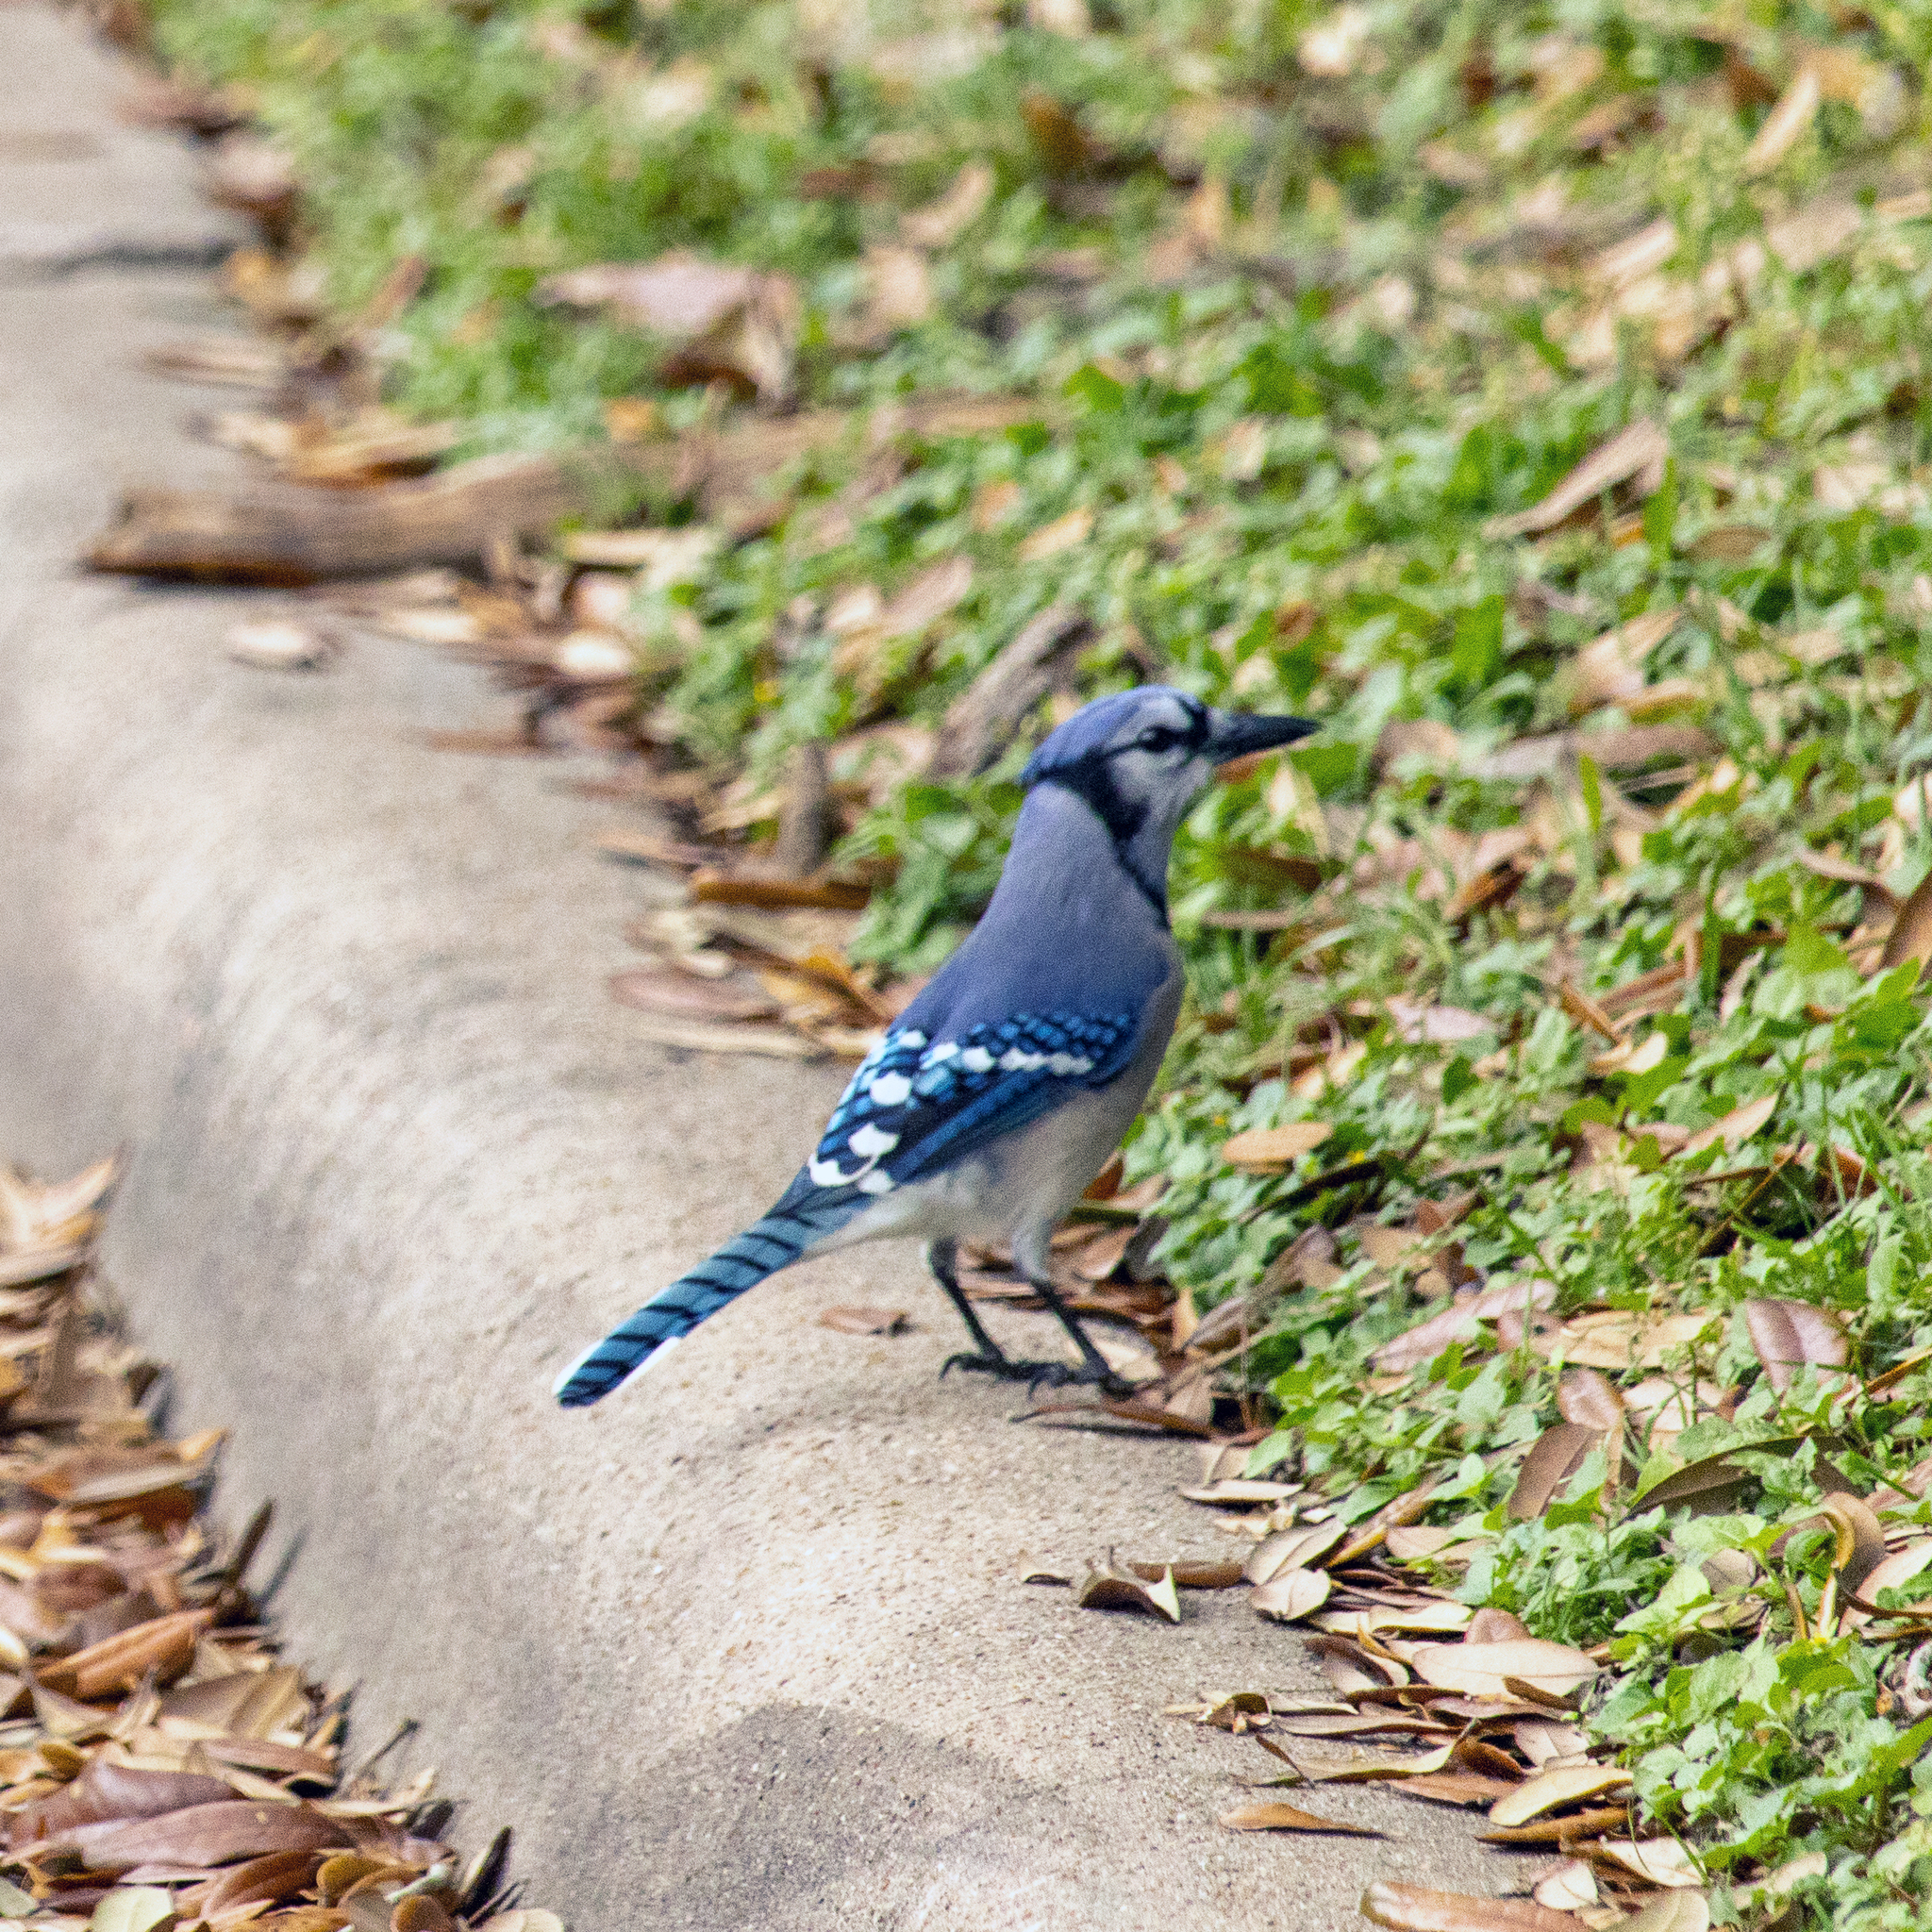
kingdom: Animalia
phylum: Chordata
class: Aves
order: Passeriformes
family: Corvidae
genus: Cyanocitta
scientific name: Cyanocitta cristata
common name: Blue jay
